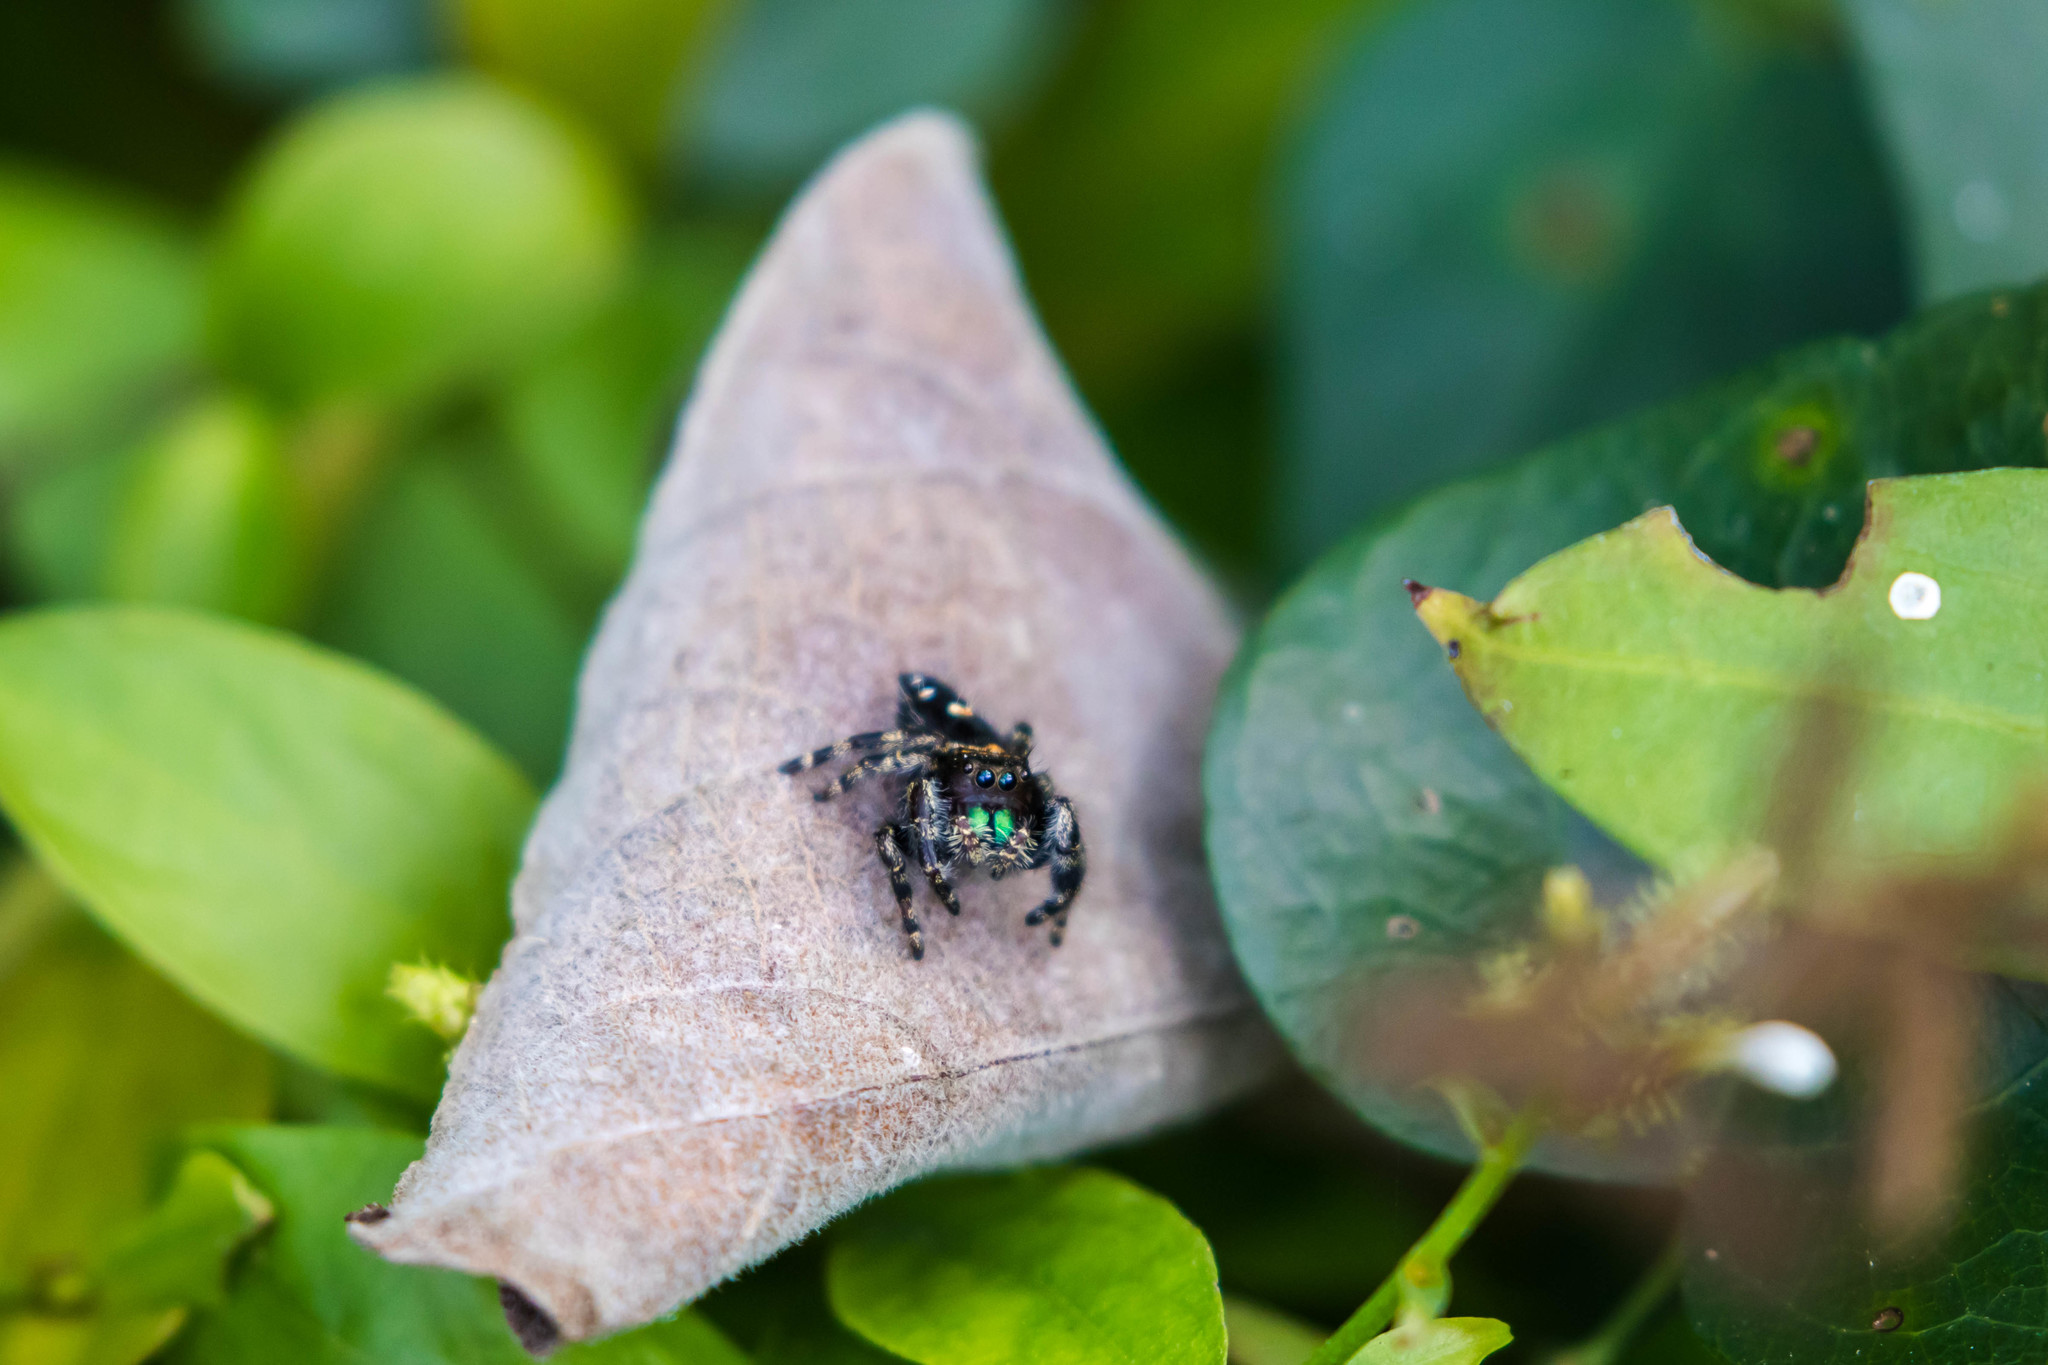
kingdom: Animalia
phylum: Arthropoda
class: Arachnida
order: Araneae
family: Salticidae
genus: Phidippus
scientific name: Phidippus audax
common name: Bold jumper
